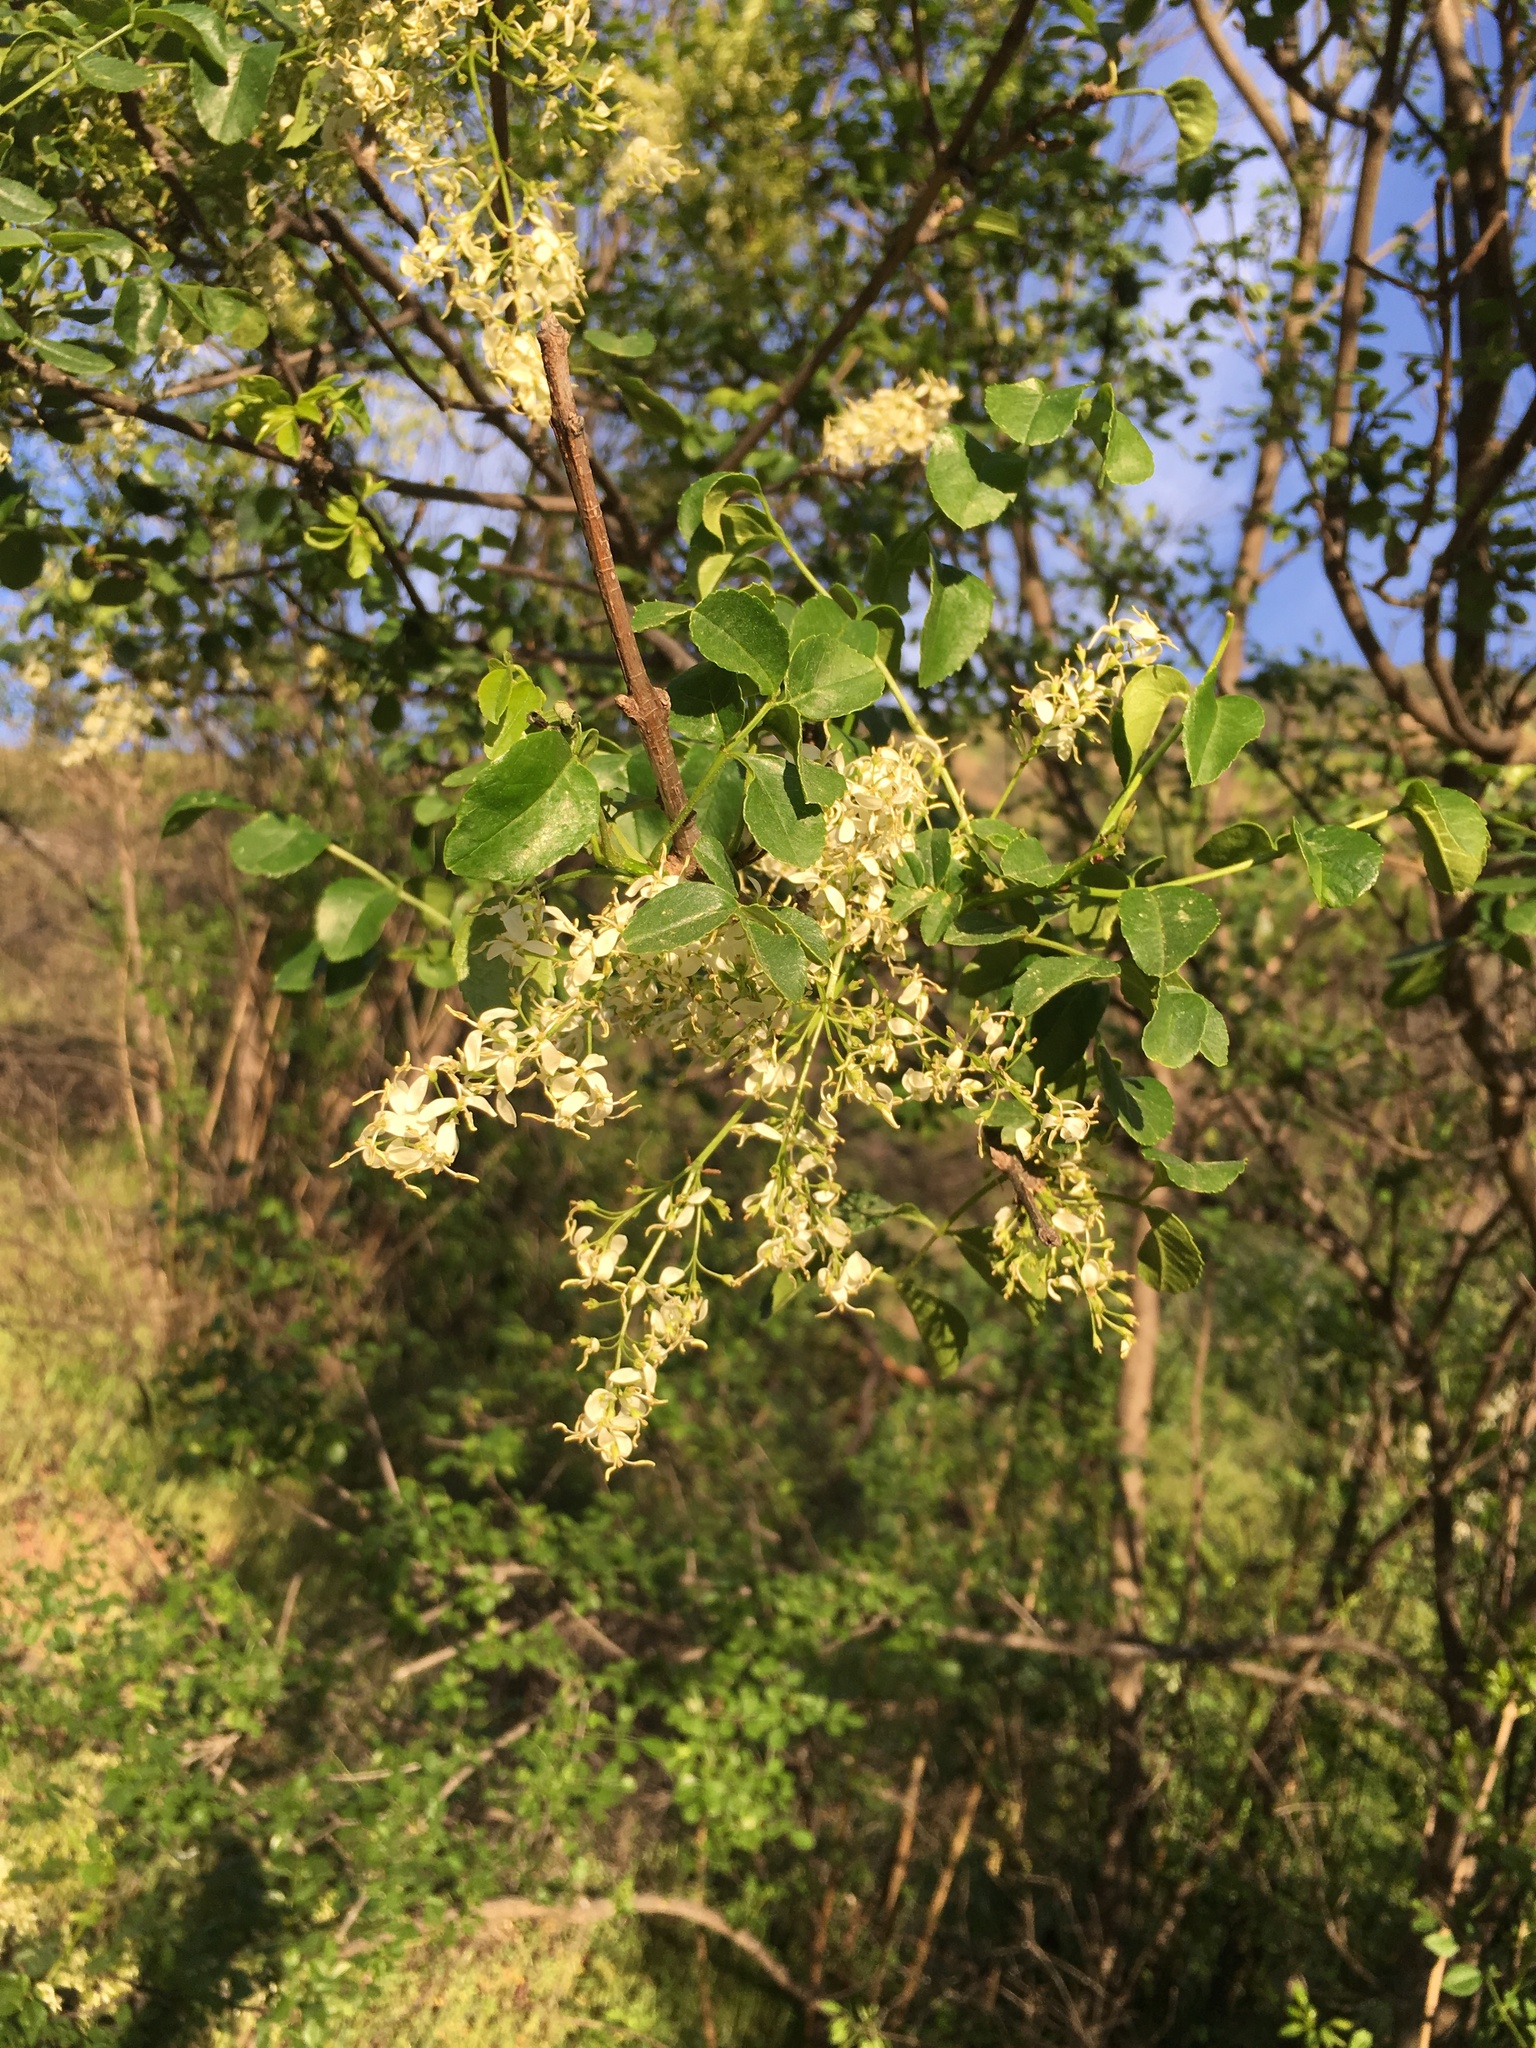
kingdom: Plantae
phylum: Tracheophyta
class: Magnoliopsida
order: Lamiales
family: Oleaceae
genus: Fraxinus
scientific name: Fraxinus dipetala
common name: California ash
